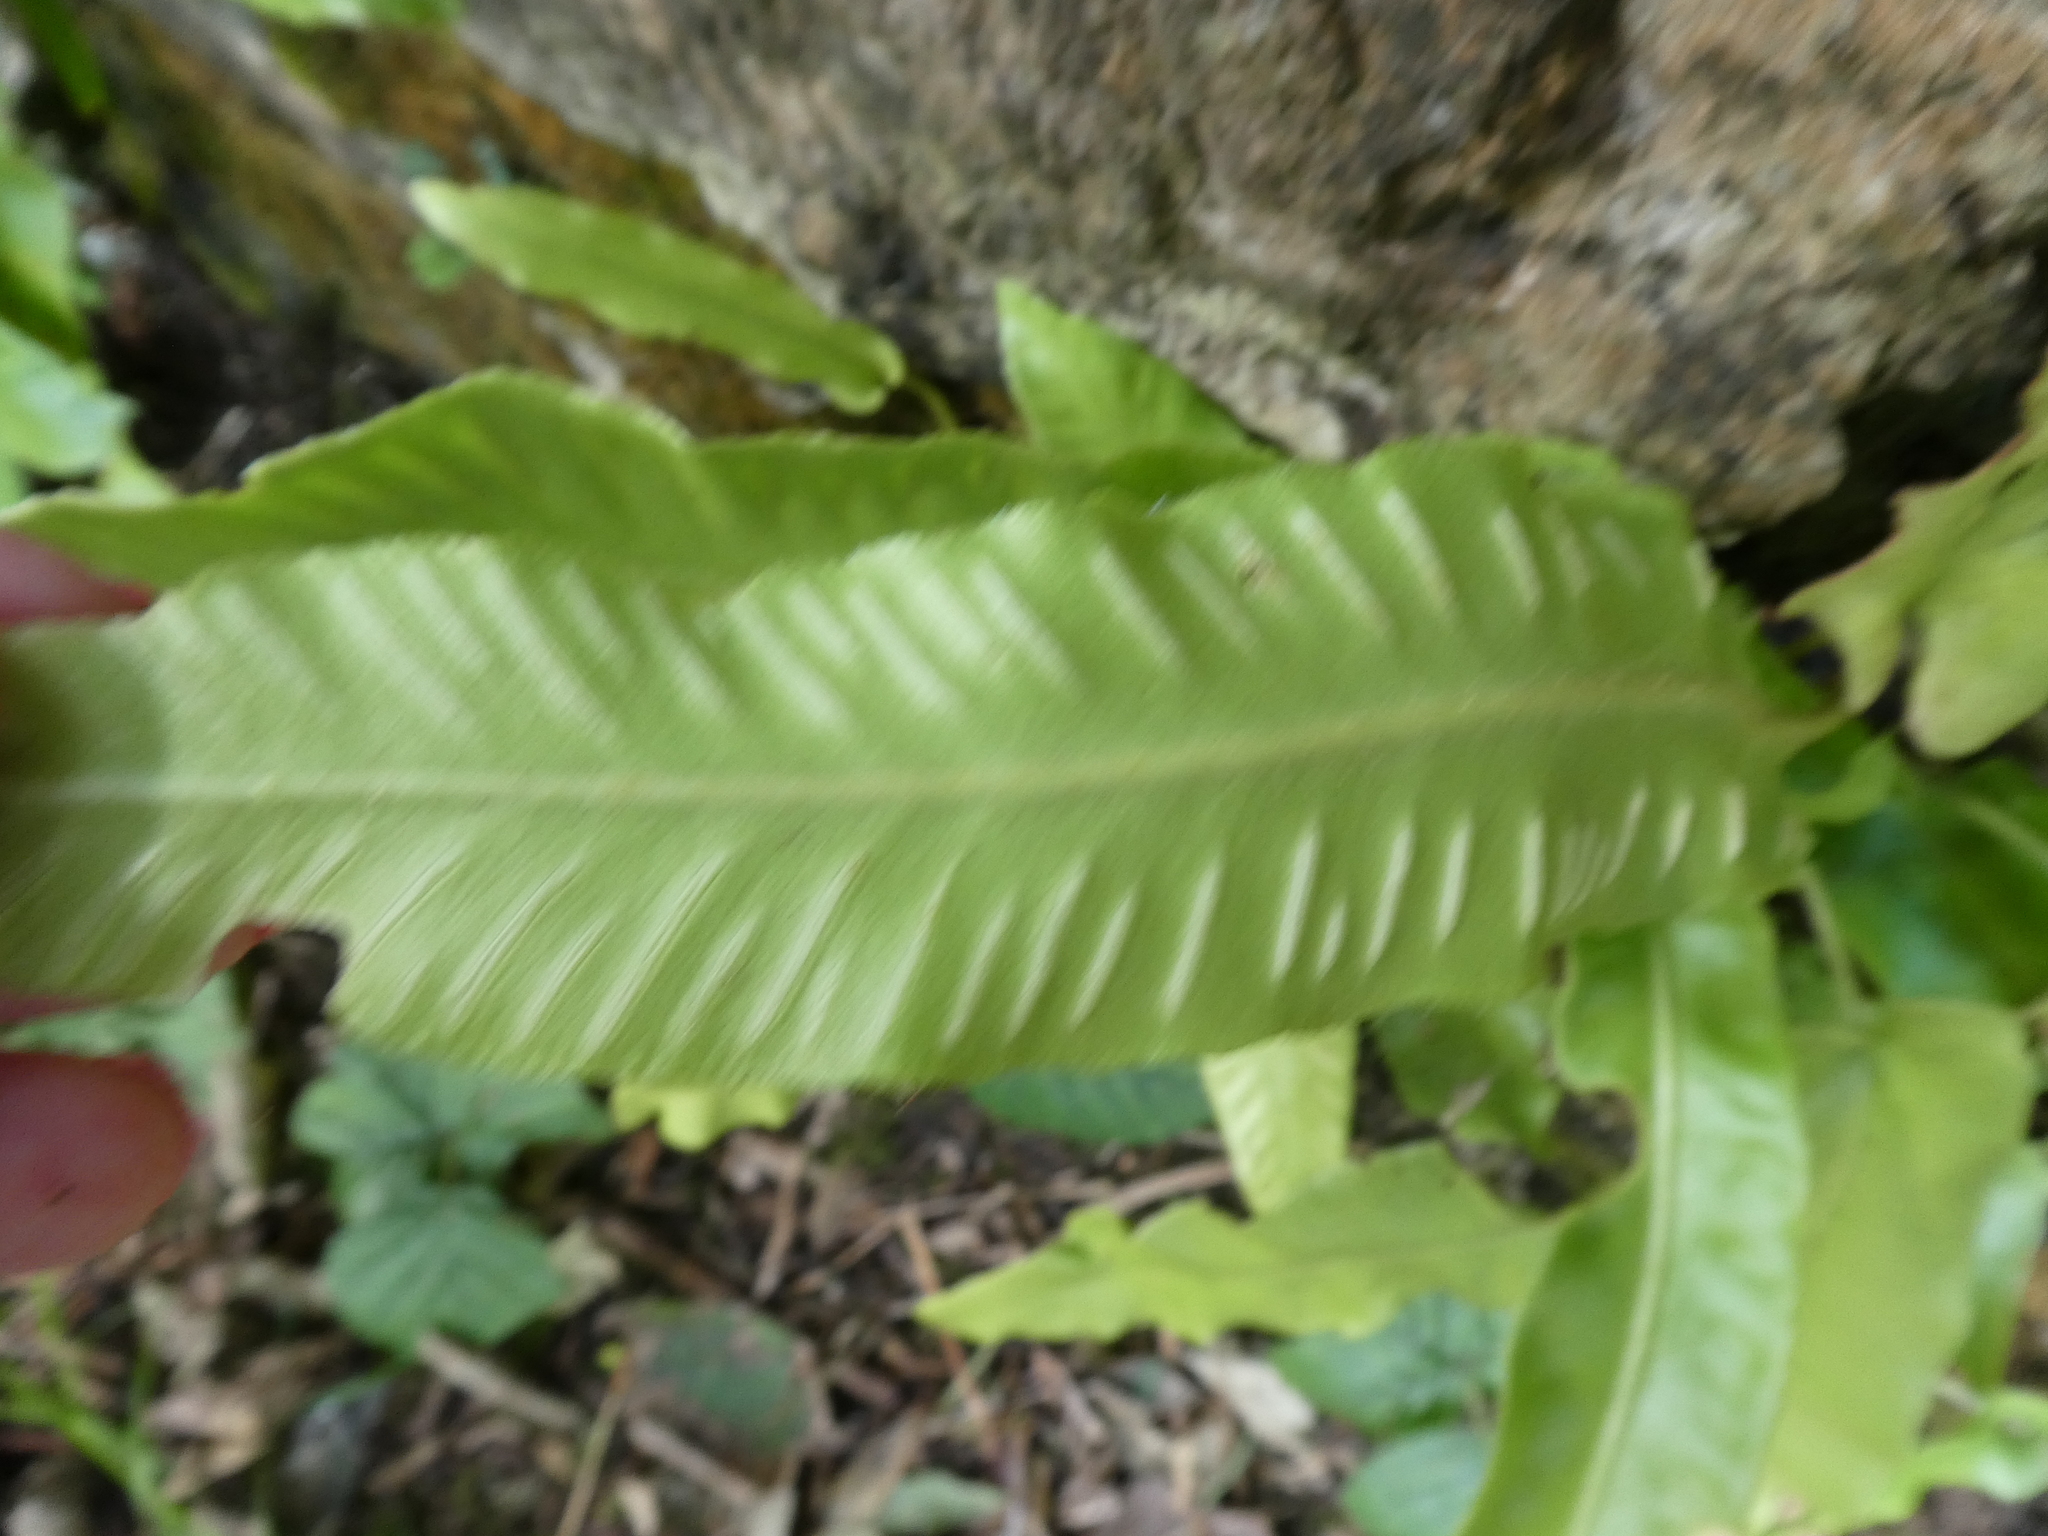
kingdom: Plantae
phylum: Tracheophyta
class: Polypodiopsida
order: Polypodiales
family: Aspleniaceae
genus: Asplenium
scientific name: Asplenium scolopendrium
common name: Hart's-tongue fern
